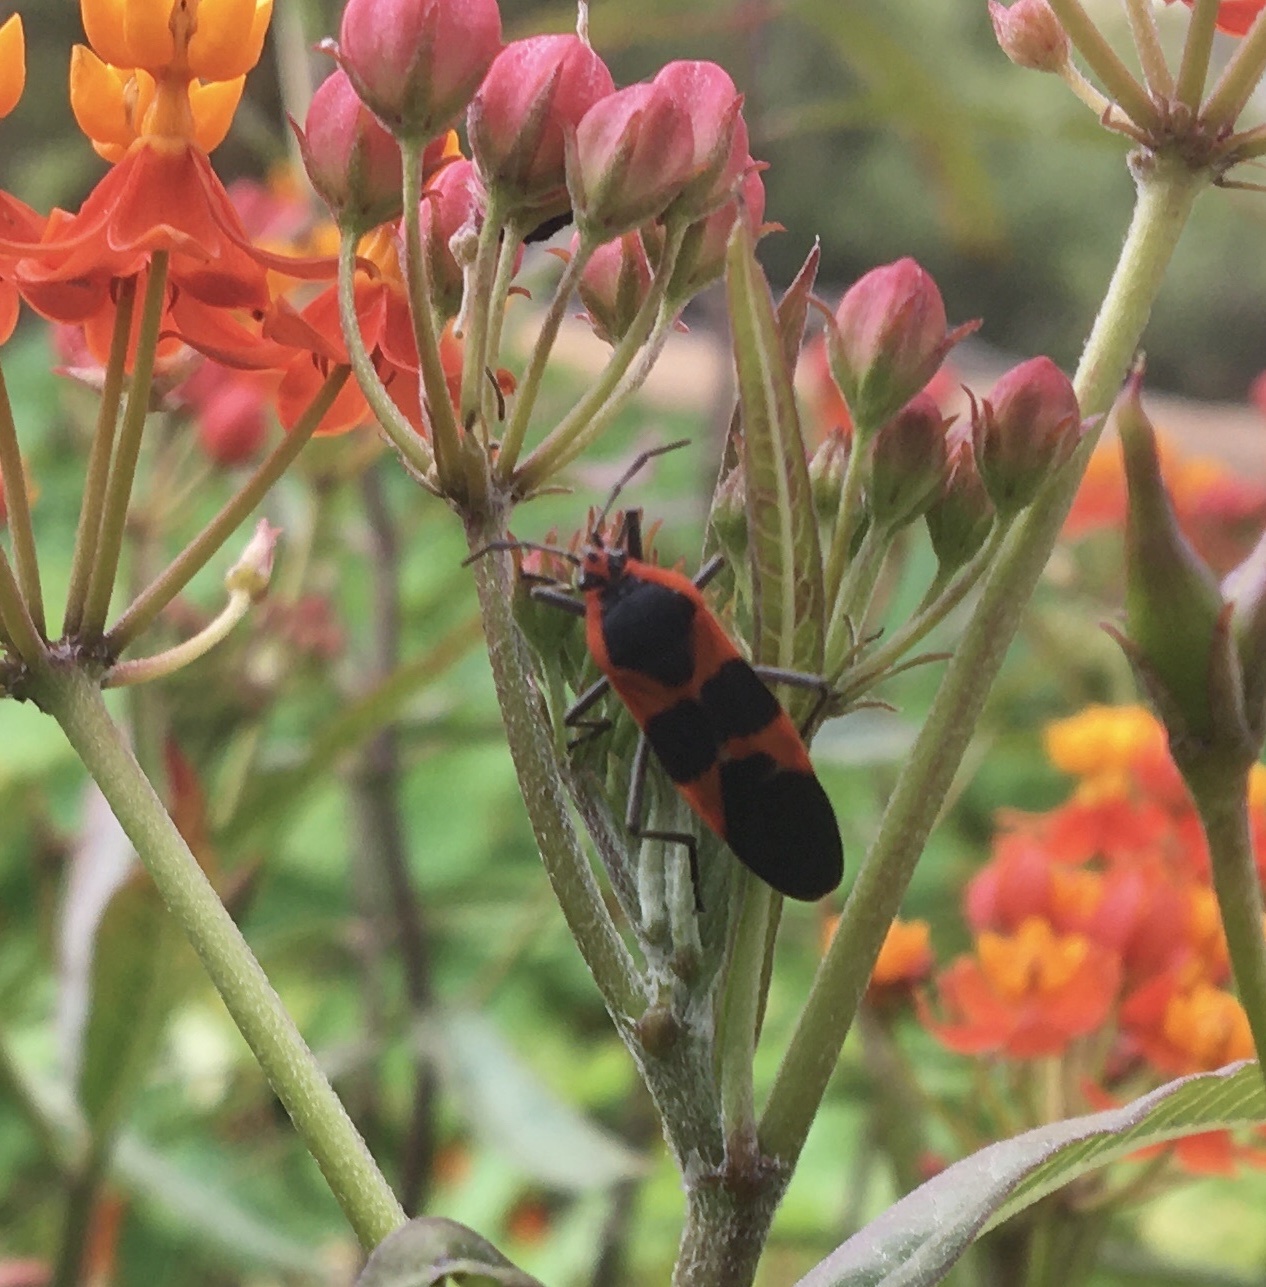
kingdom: Animalia
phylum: Arthropoda
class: Insecta
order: Hemiptera
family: Lygaeidae
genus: Oncopeltus
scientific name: Oncopeltus fasciatus
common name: Large milkweed bug
